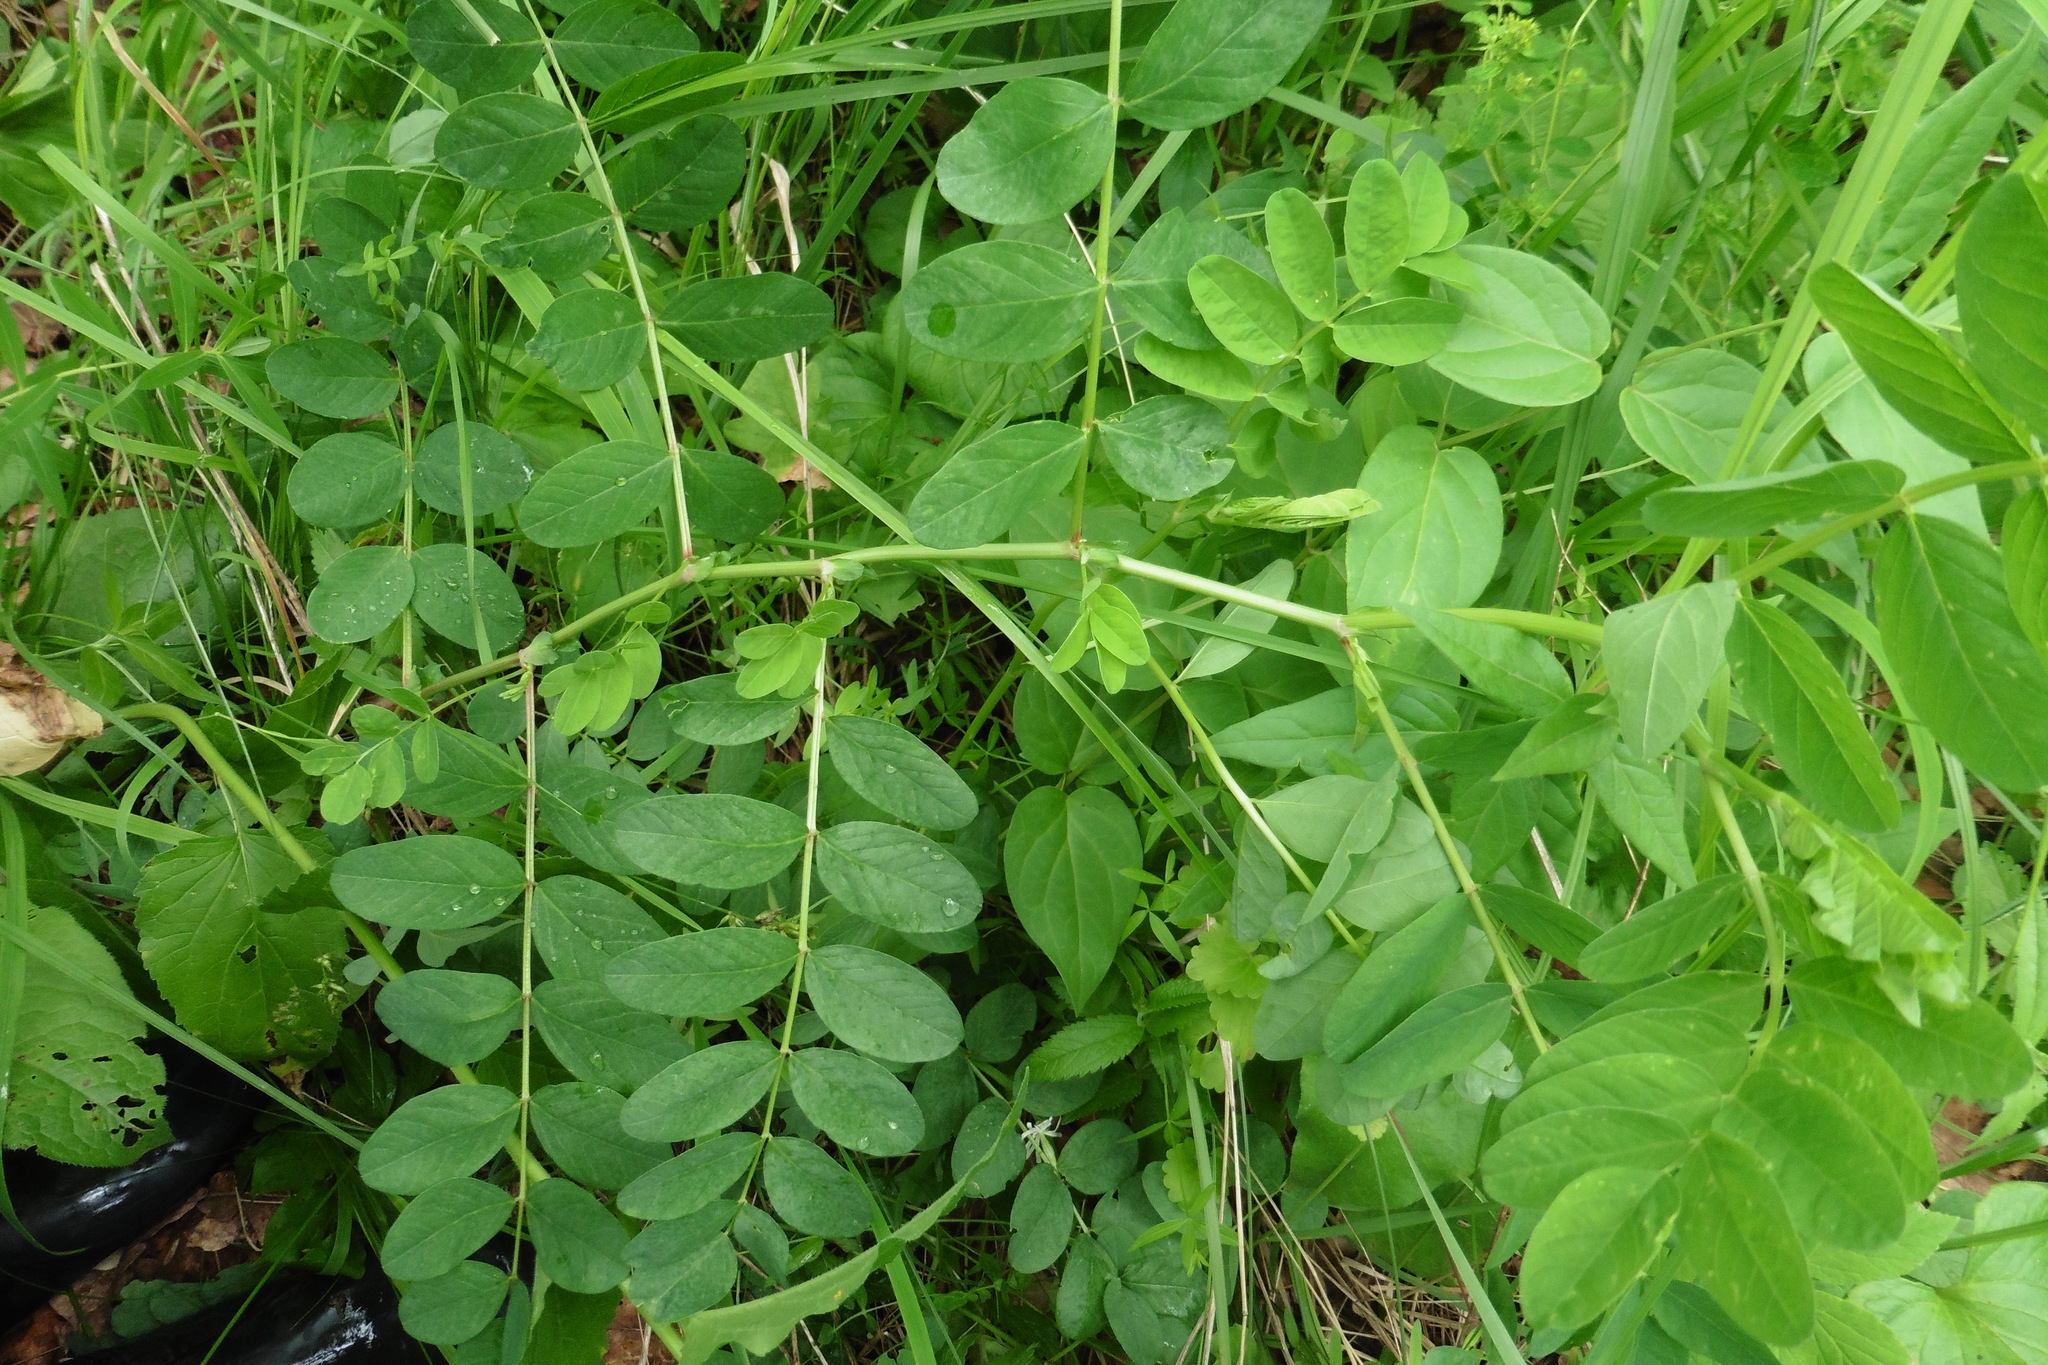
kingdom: Plantae
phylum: Tracheophyta
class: Magnoliopsida
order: Fabales
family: Fabaceae
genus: Astragalus
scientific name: Astragalus glycyphyllos
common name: Wild liquorice
